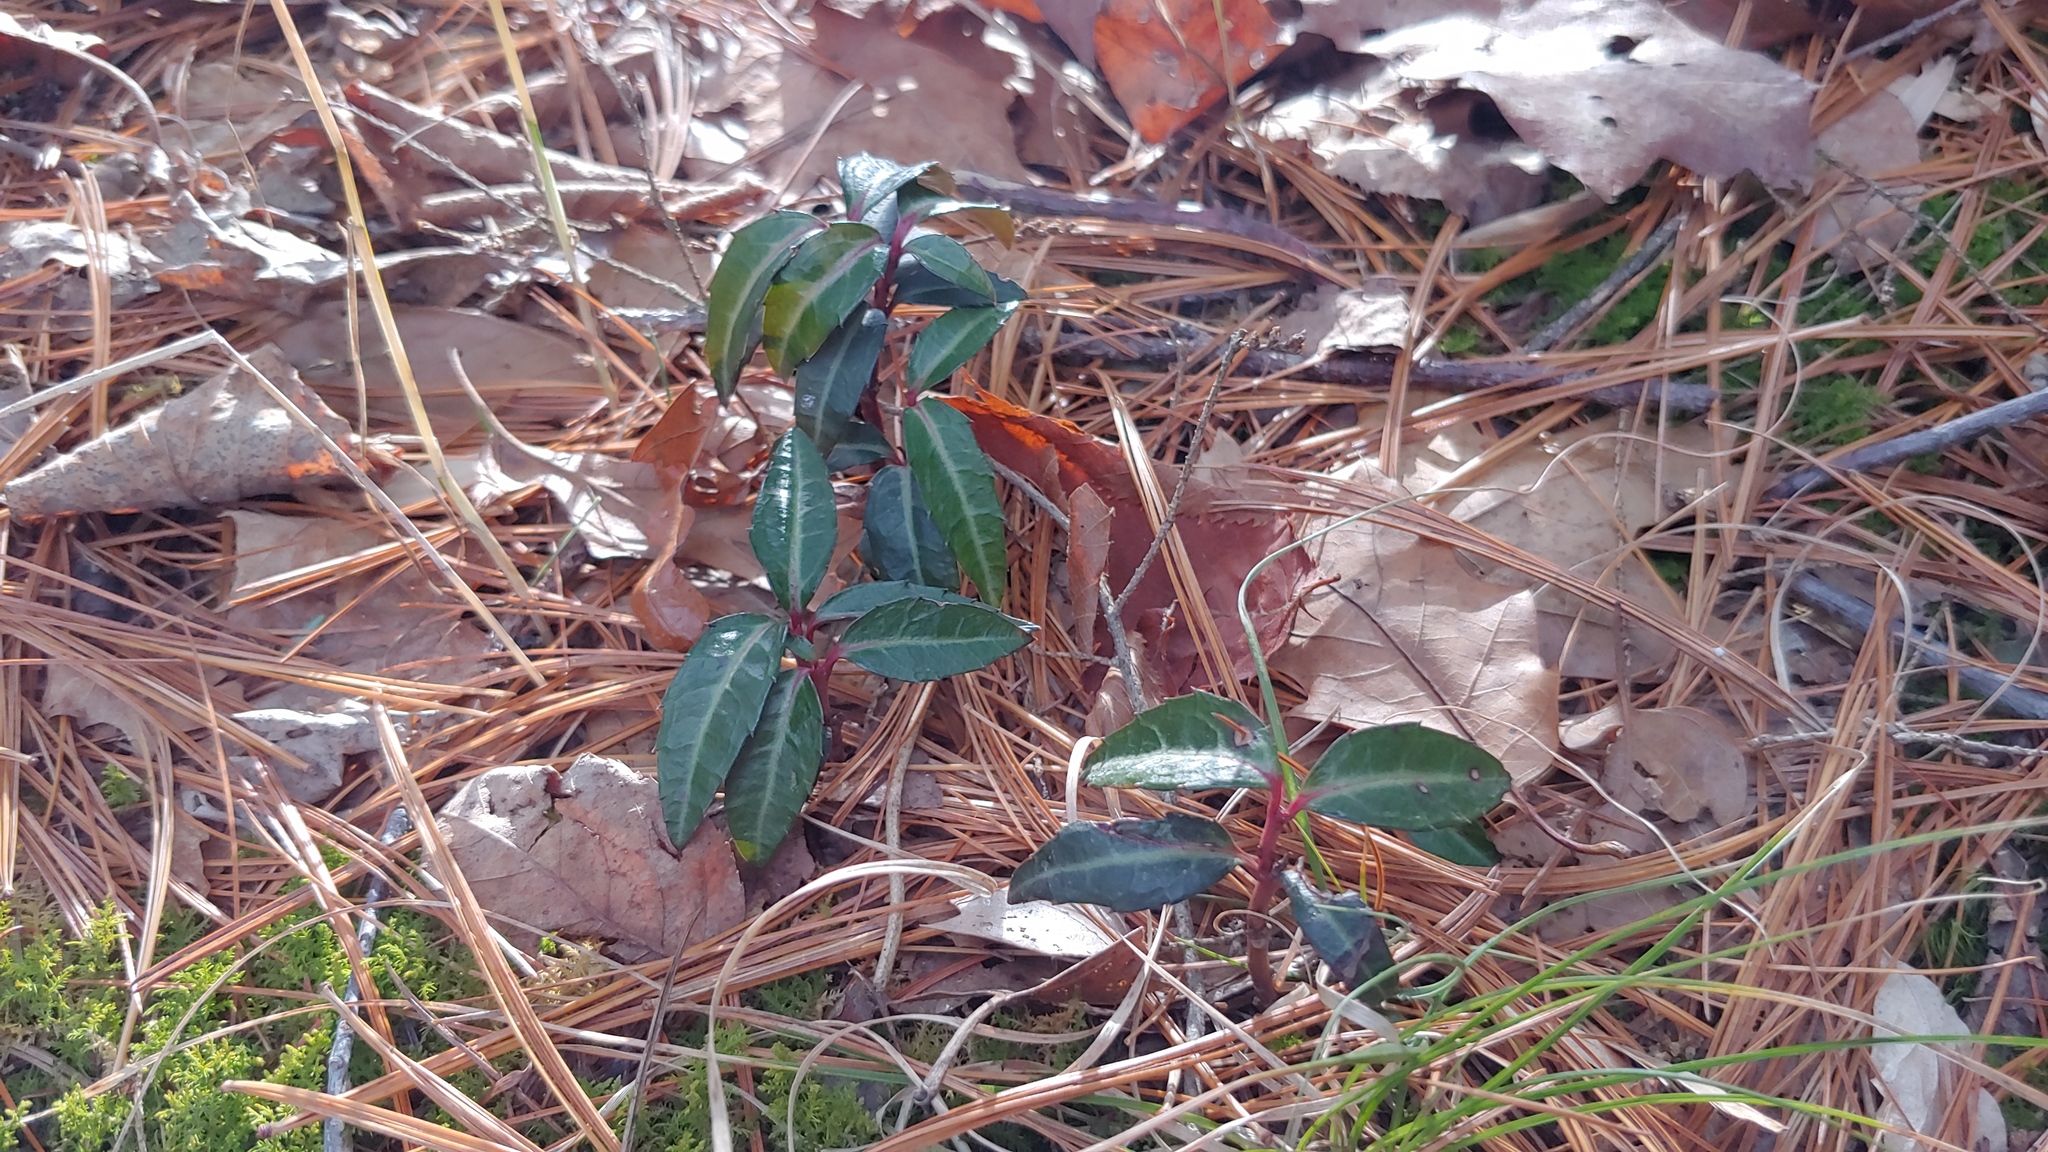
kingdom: Plantae
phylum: Tracheophyta
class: Magnoliopsida
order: Ericales
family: Ericaceae
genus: Chimaphila
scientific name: Chimaphila maculata
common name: Spotted pipsissewa
